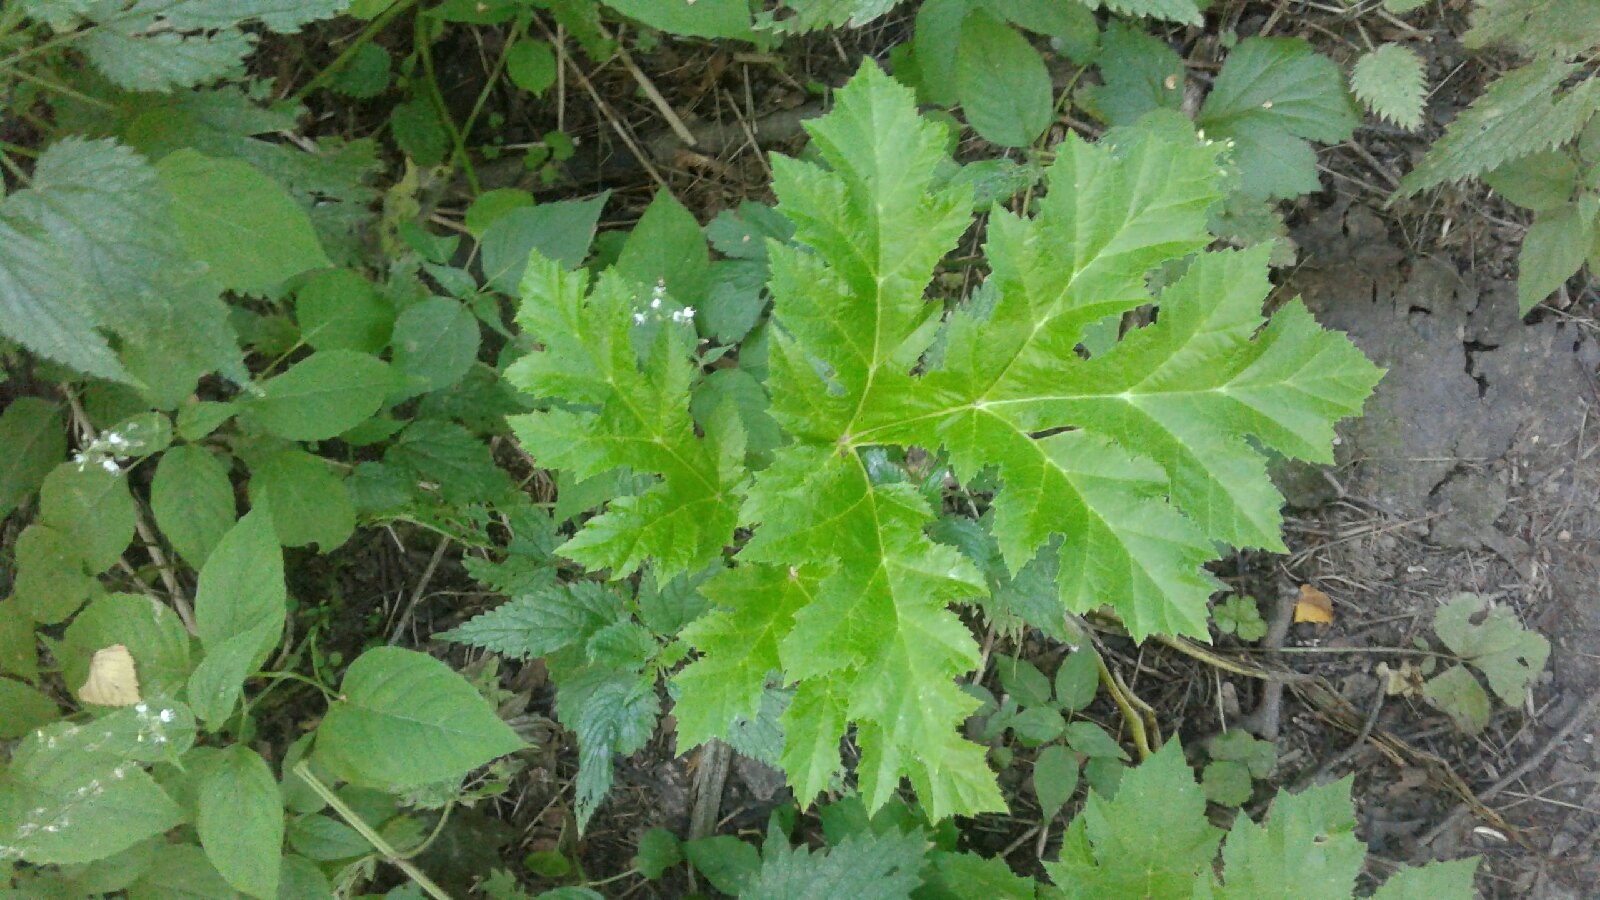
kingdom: Plantae
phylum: Tracheophyta
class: Magnoliopsida
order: Apiales
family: Apiaceae
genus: Heracleum
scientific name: Heracleum sosnowskyi
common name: Sosnowsky's hogweed
